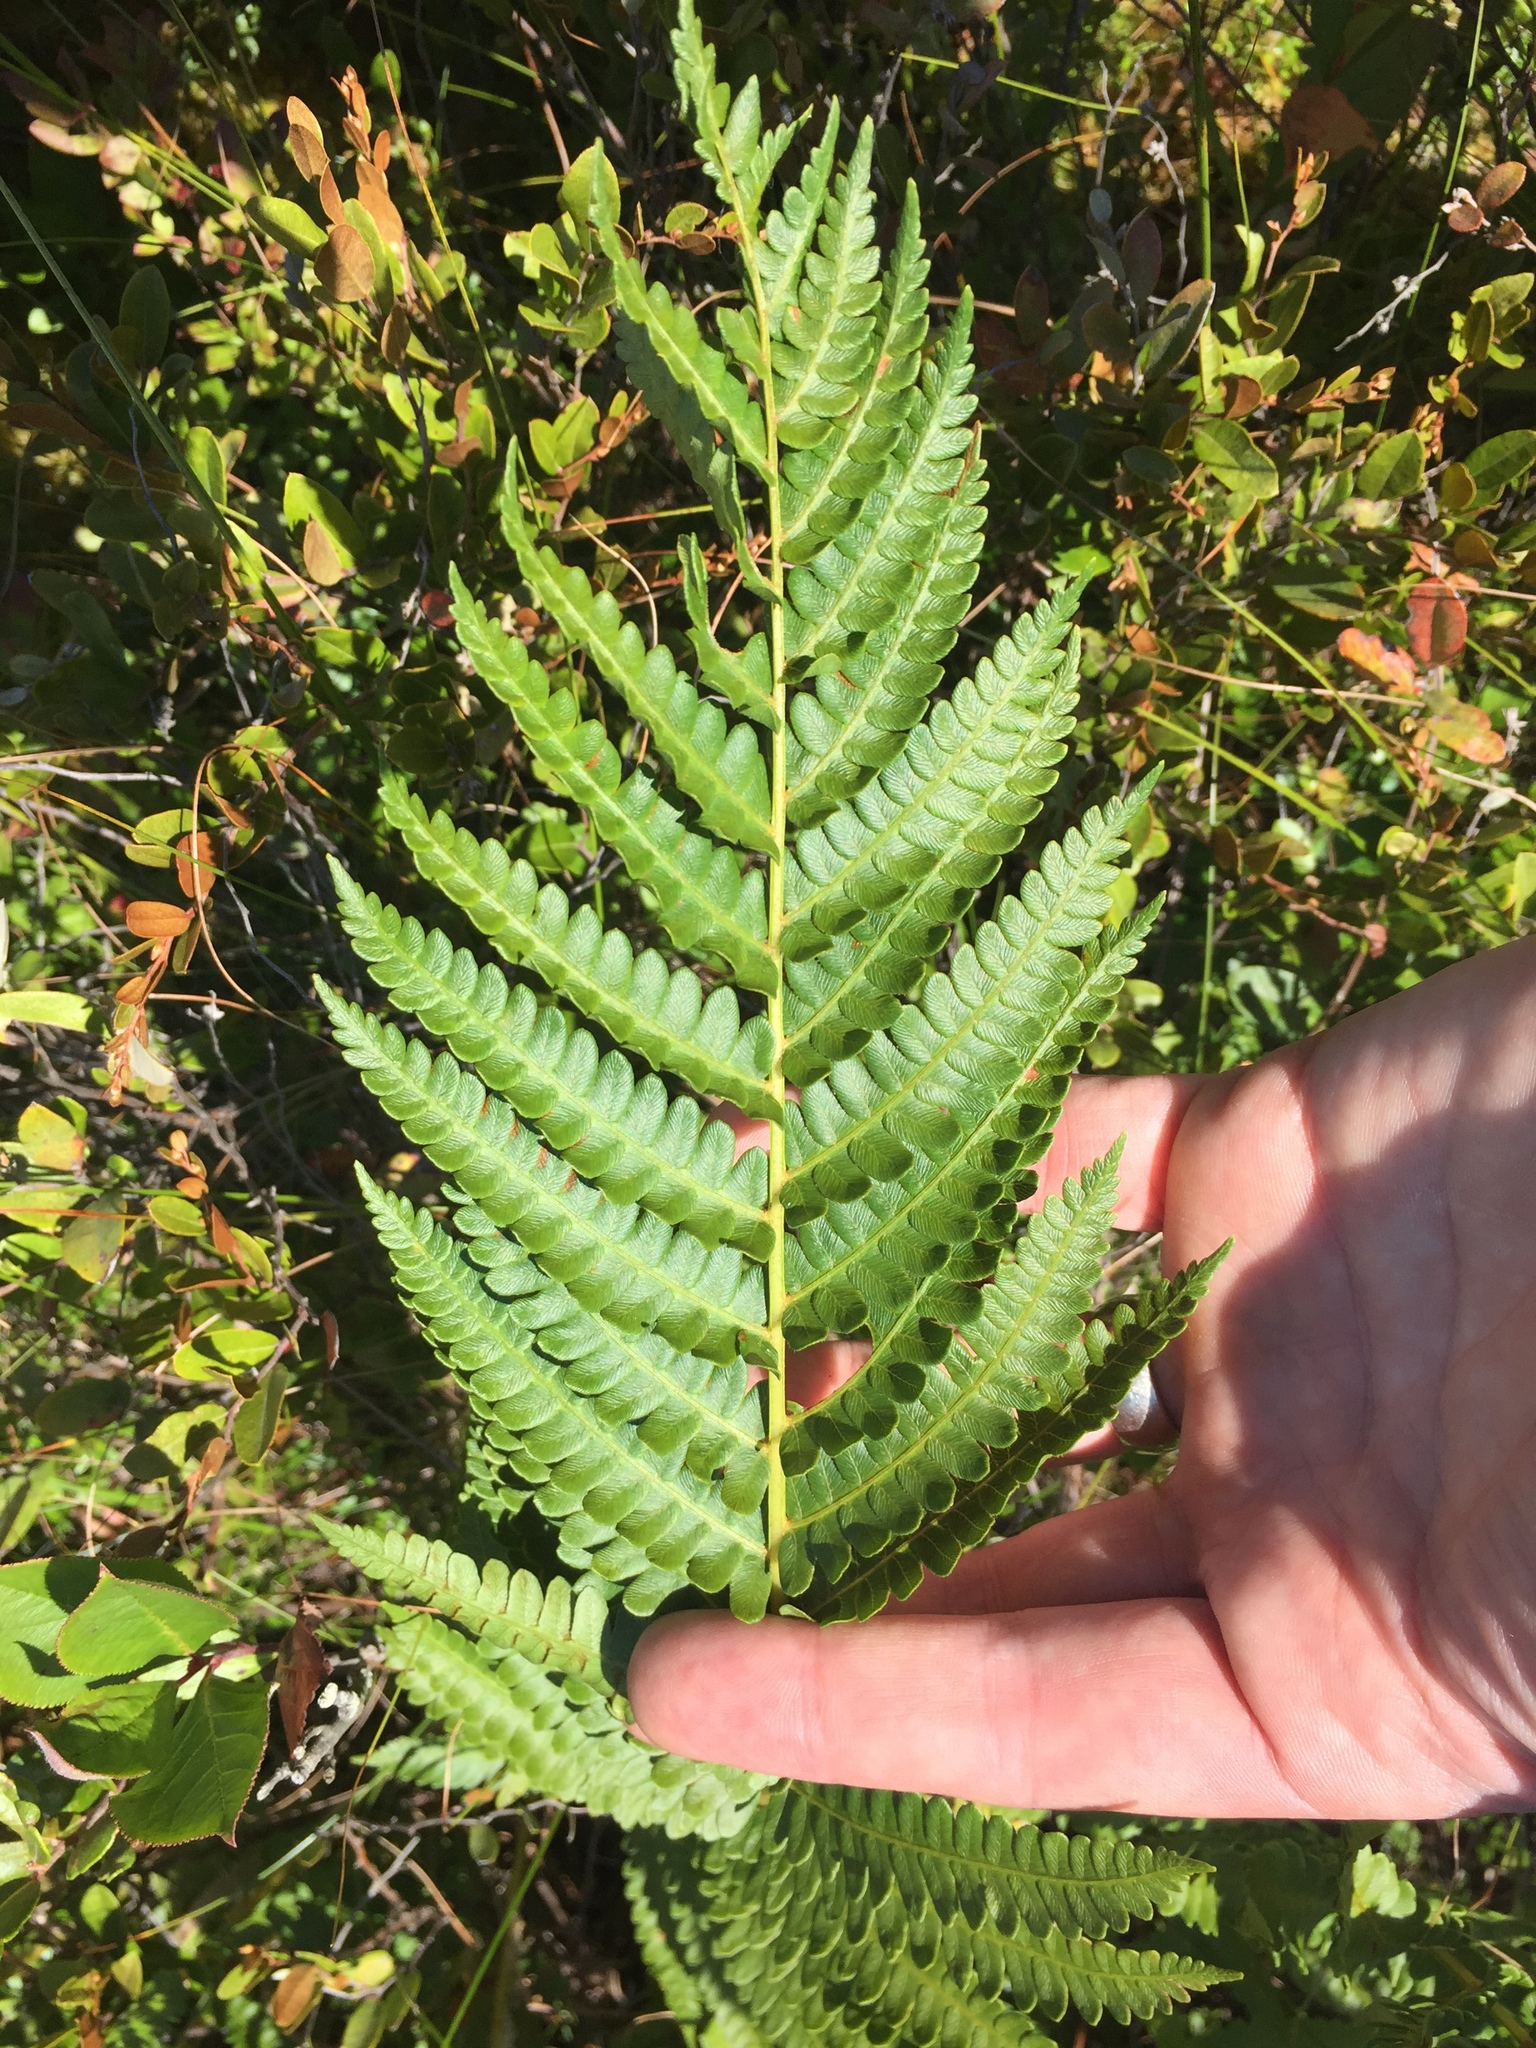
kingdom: Plantae
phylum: Tracheophyta
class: Polypodiopsida
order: Osmundales
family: Osmundaceae
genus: Osmundastrum
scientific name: Osmundastrum cinnamomeum
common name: Cinnamon fern
